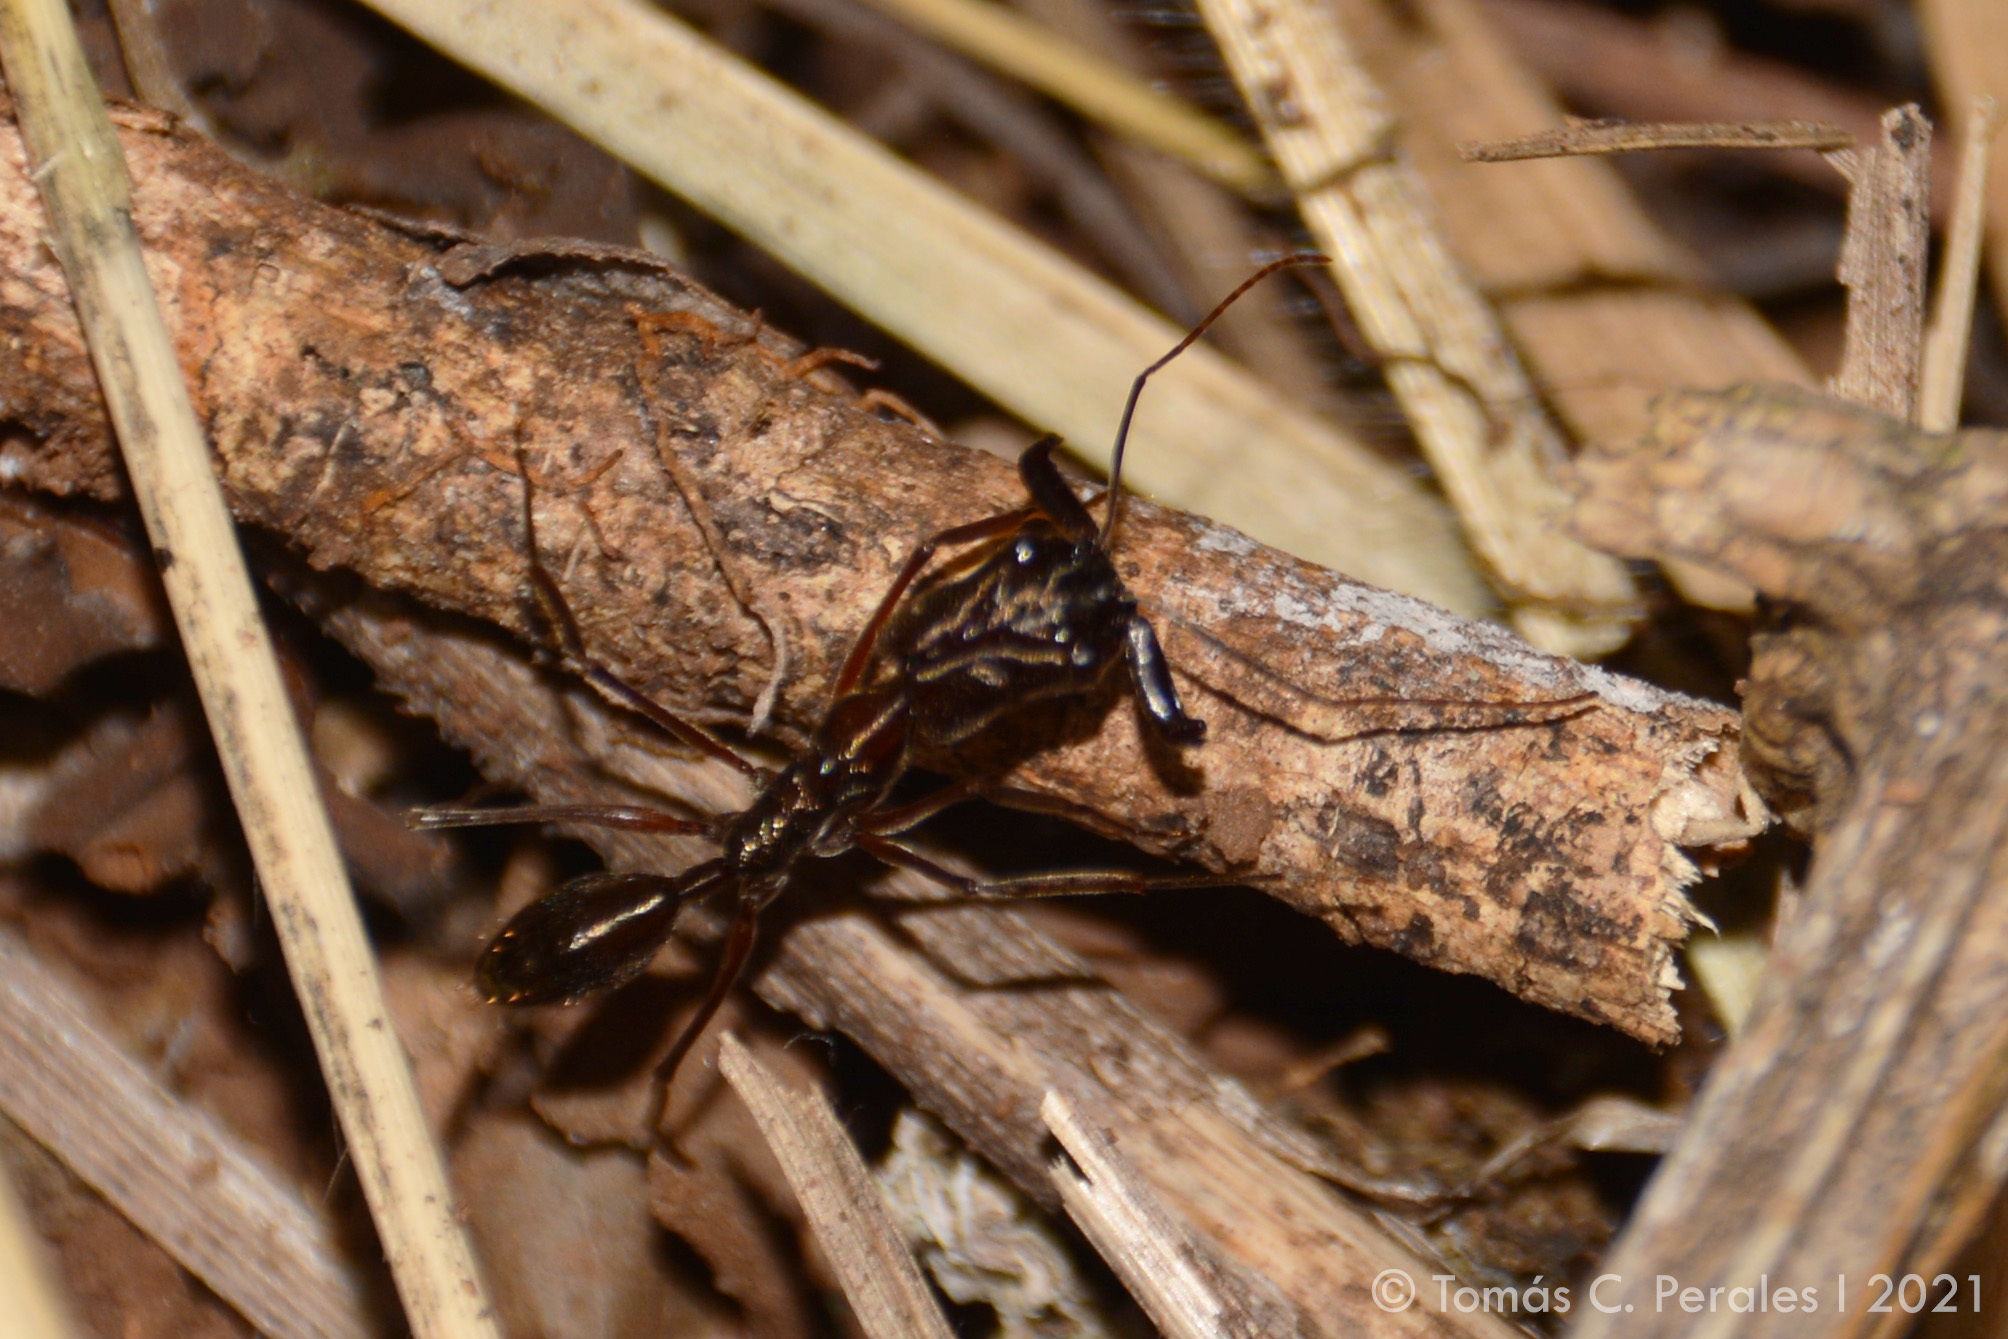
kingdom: Animalia
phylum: Arthropoda
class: Insecta
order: Hymenoptera
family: Formicidae
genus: Odontomachus
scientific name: Odontomachus chelifer
